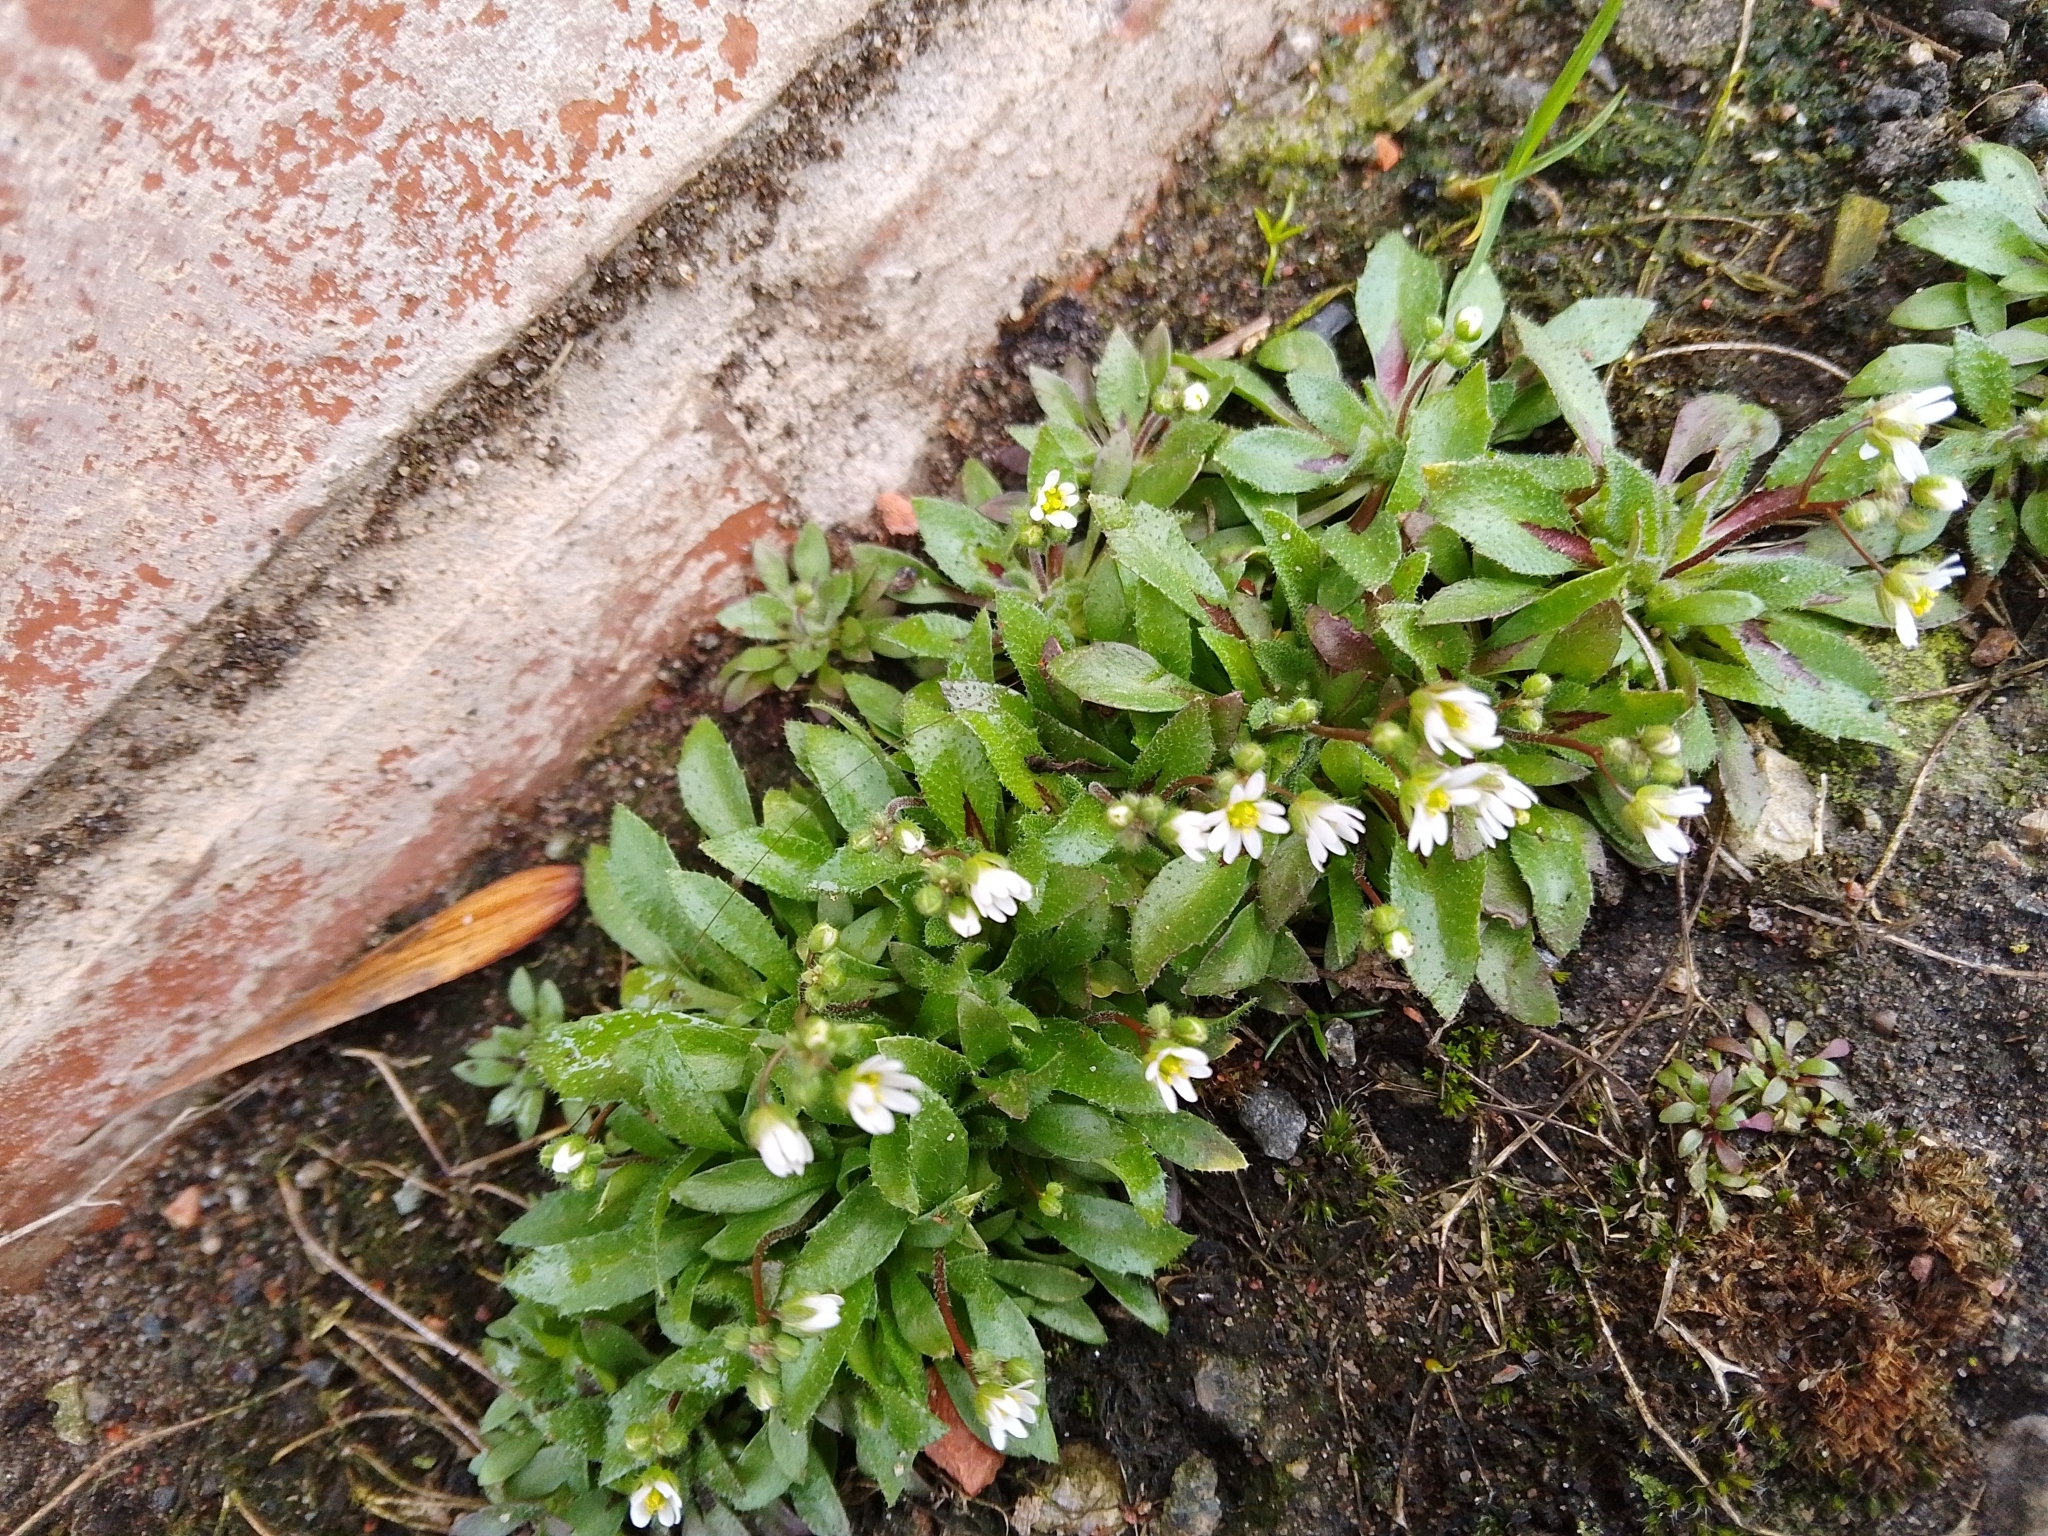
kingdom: Plantae
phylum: Tracheophyta
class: Magnoliopsida
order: Brassicales
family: Brassicaceae
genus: Draba
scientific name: Draba verna
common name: Spring draba
